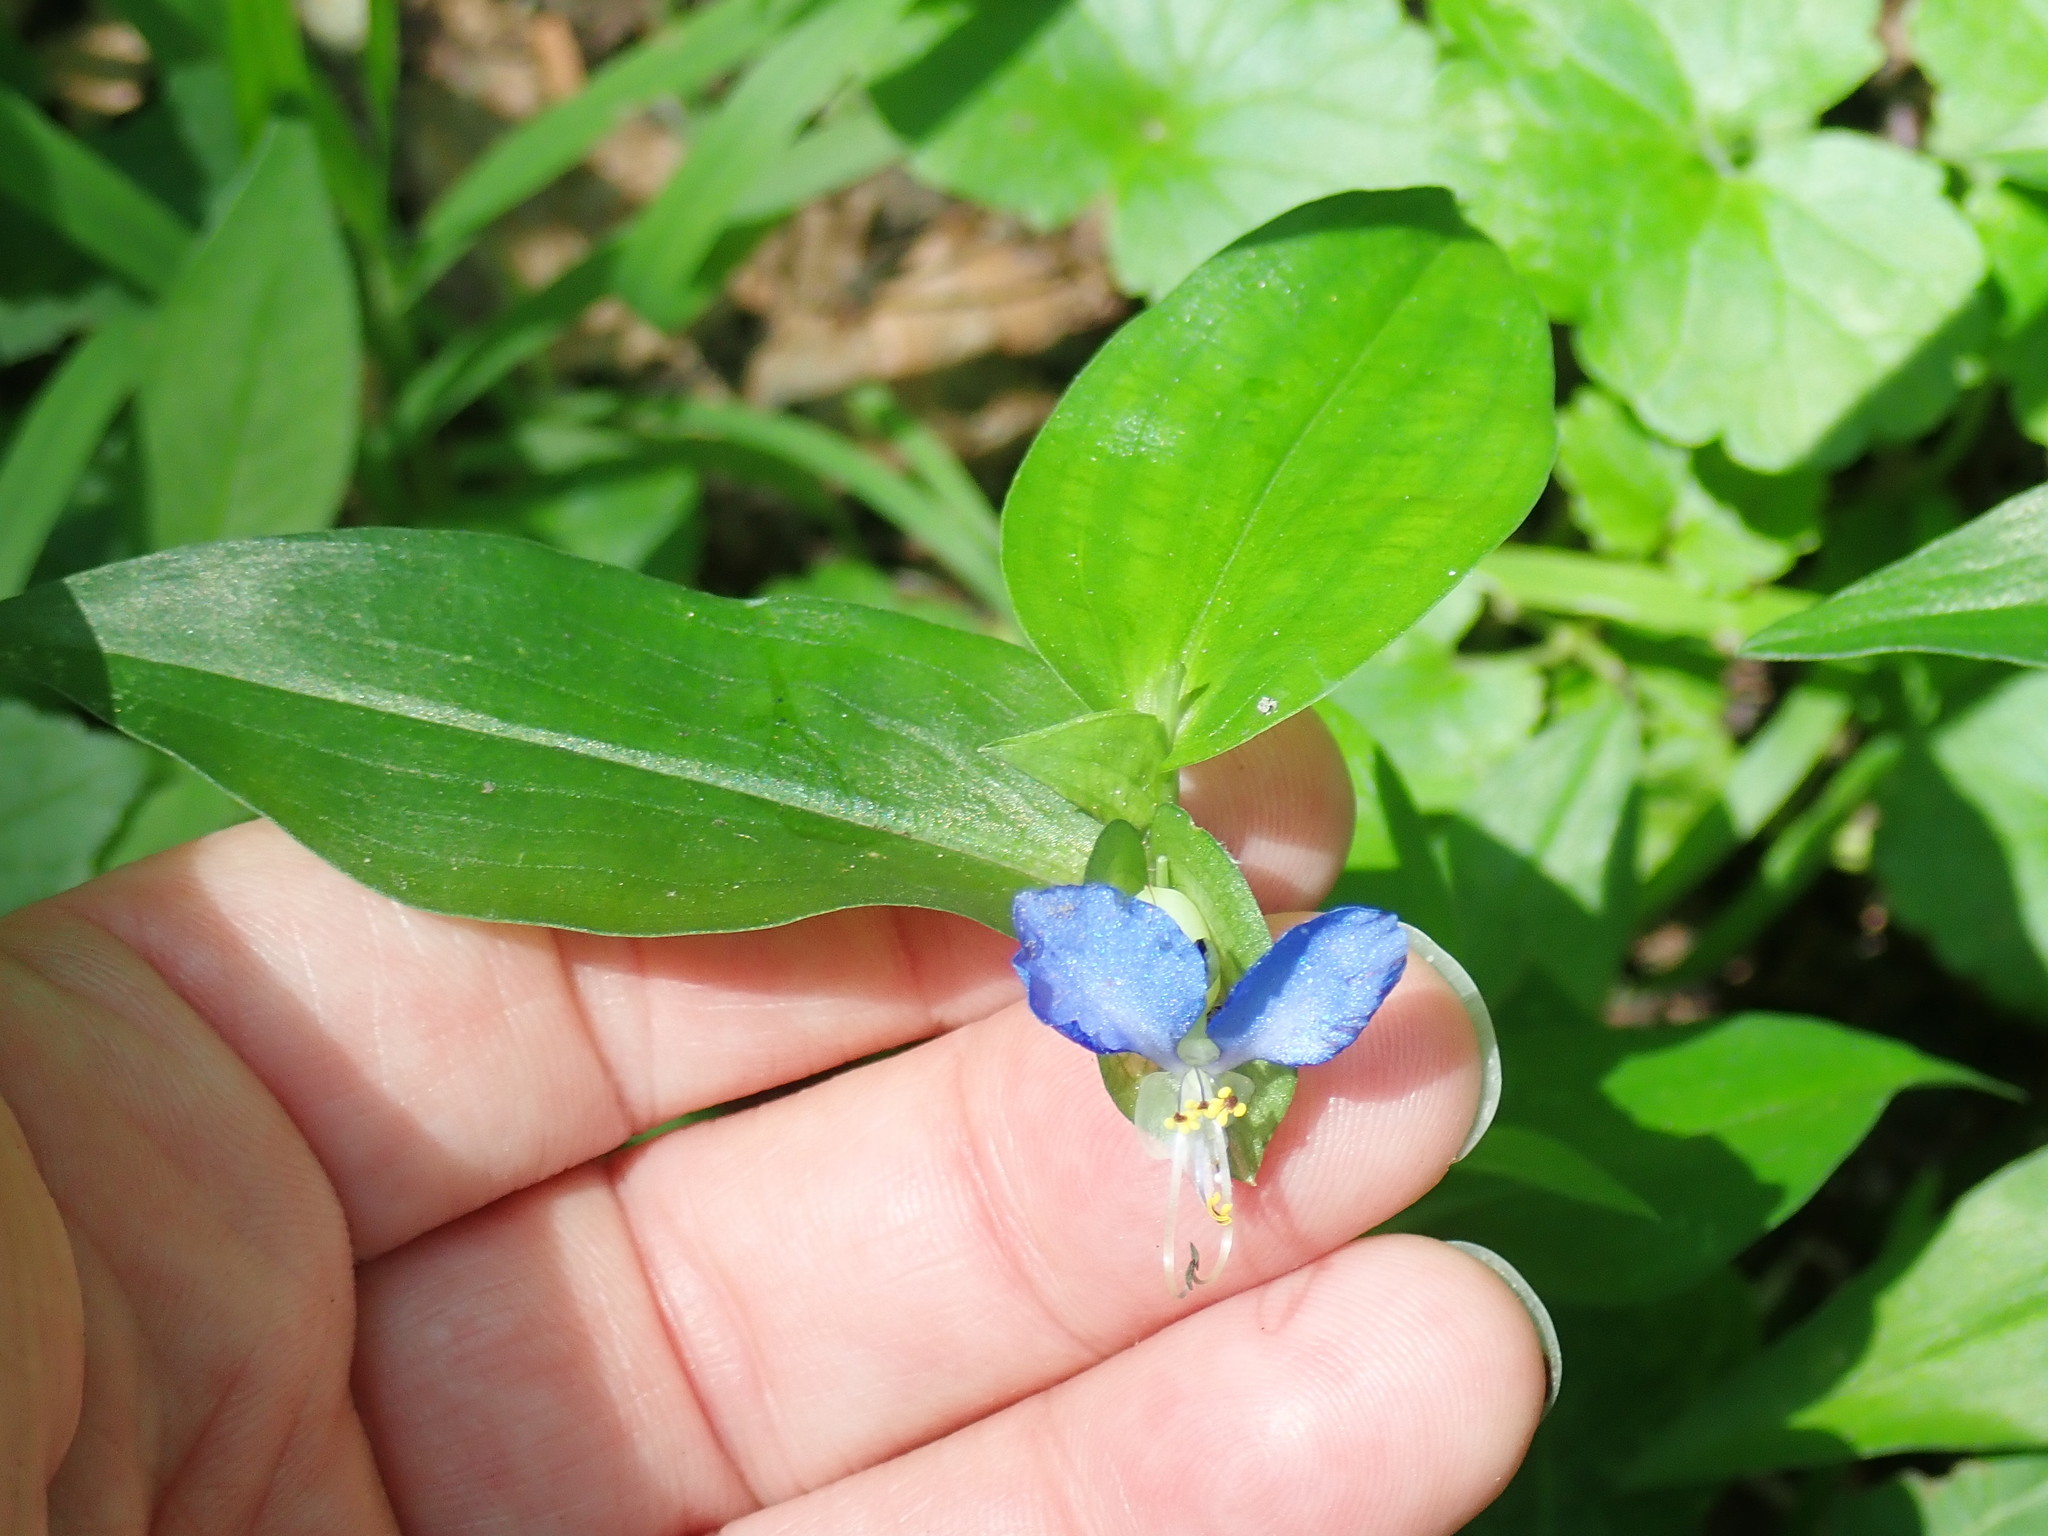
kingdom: Plantae
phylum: Tracheophyta
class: Liliopsida
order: Commelinales
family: Commelinaceae
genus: Commelina
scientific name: Commelina communis
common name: Asiatic dayflower
